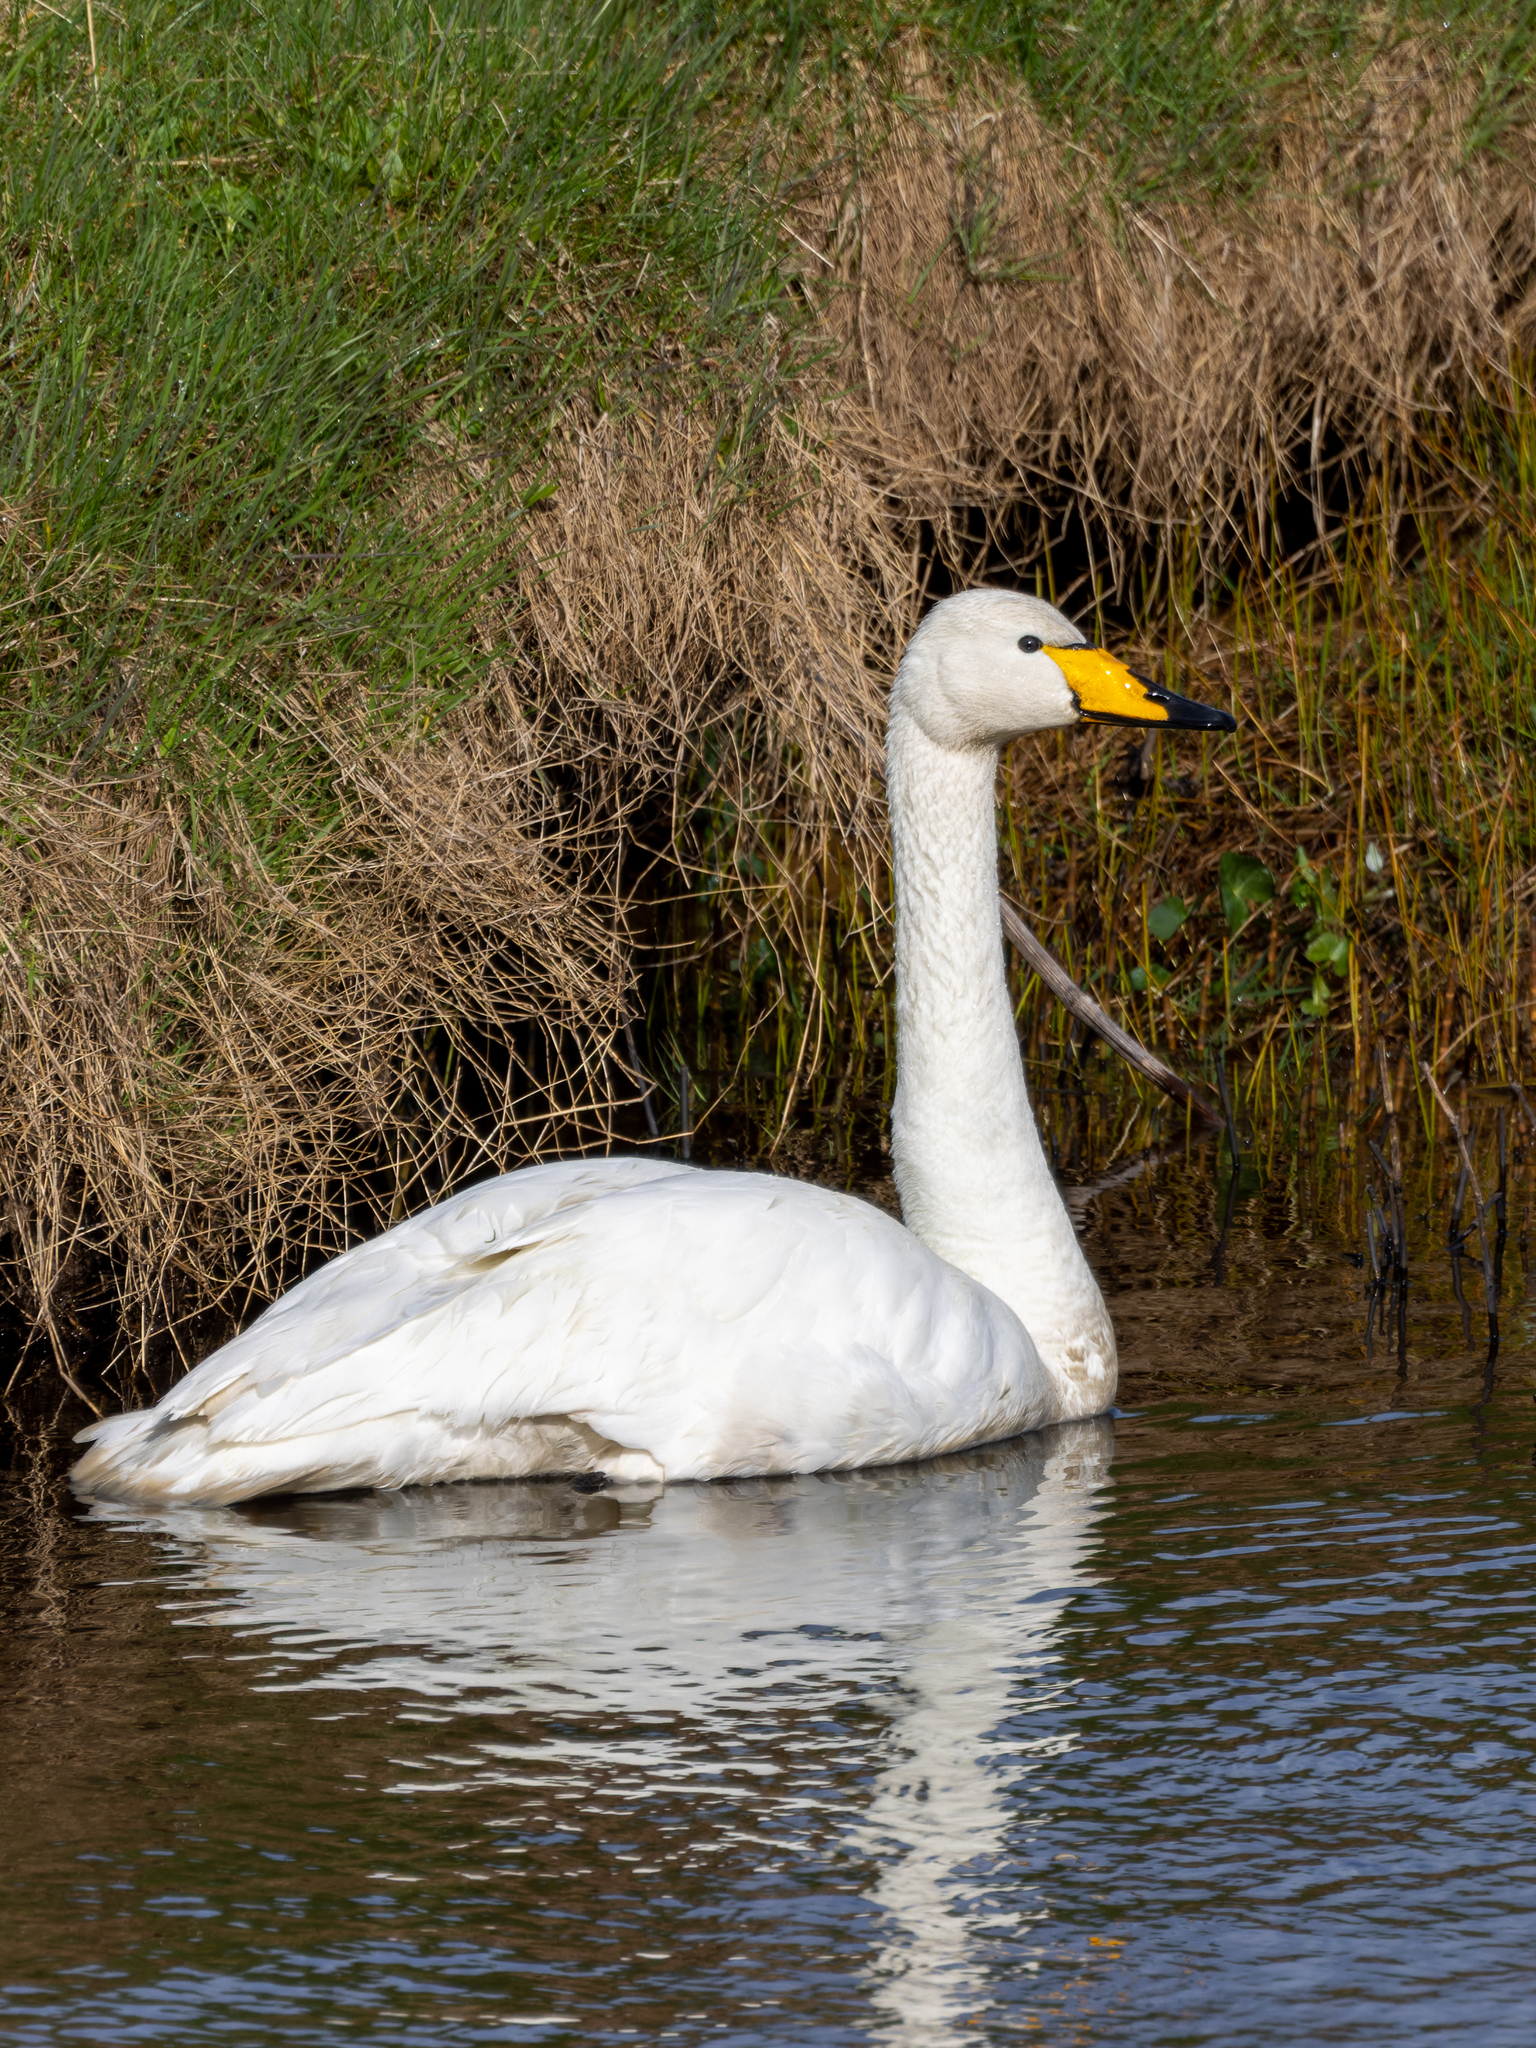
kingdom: Animalia
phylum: Chordata
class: Aves
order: Anseriformes
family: Anatidae
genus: Cygnus
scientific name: Cygnus cygnus
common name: Whooper swan
